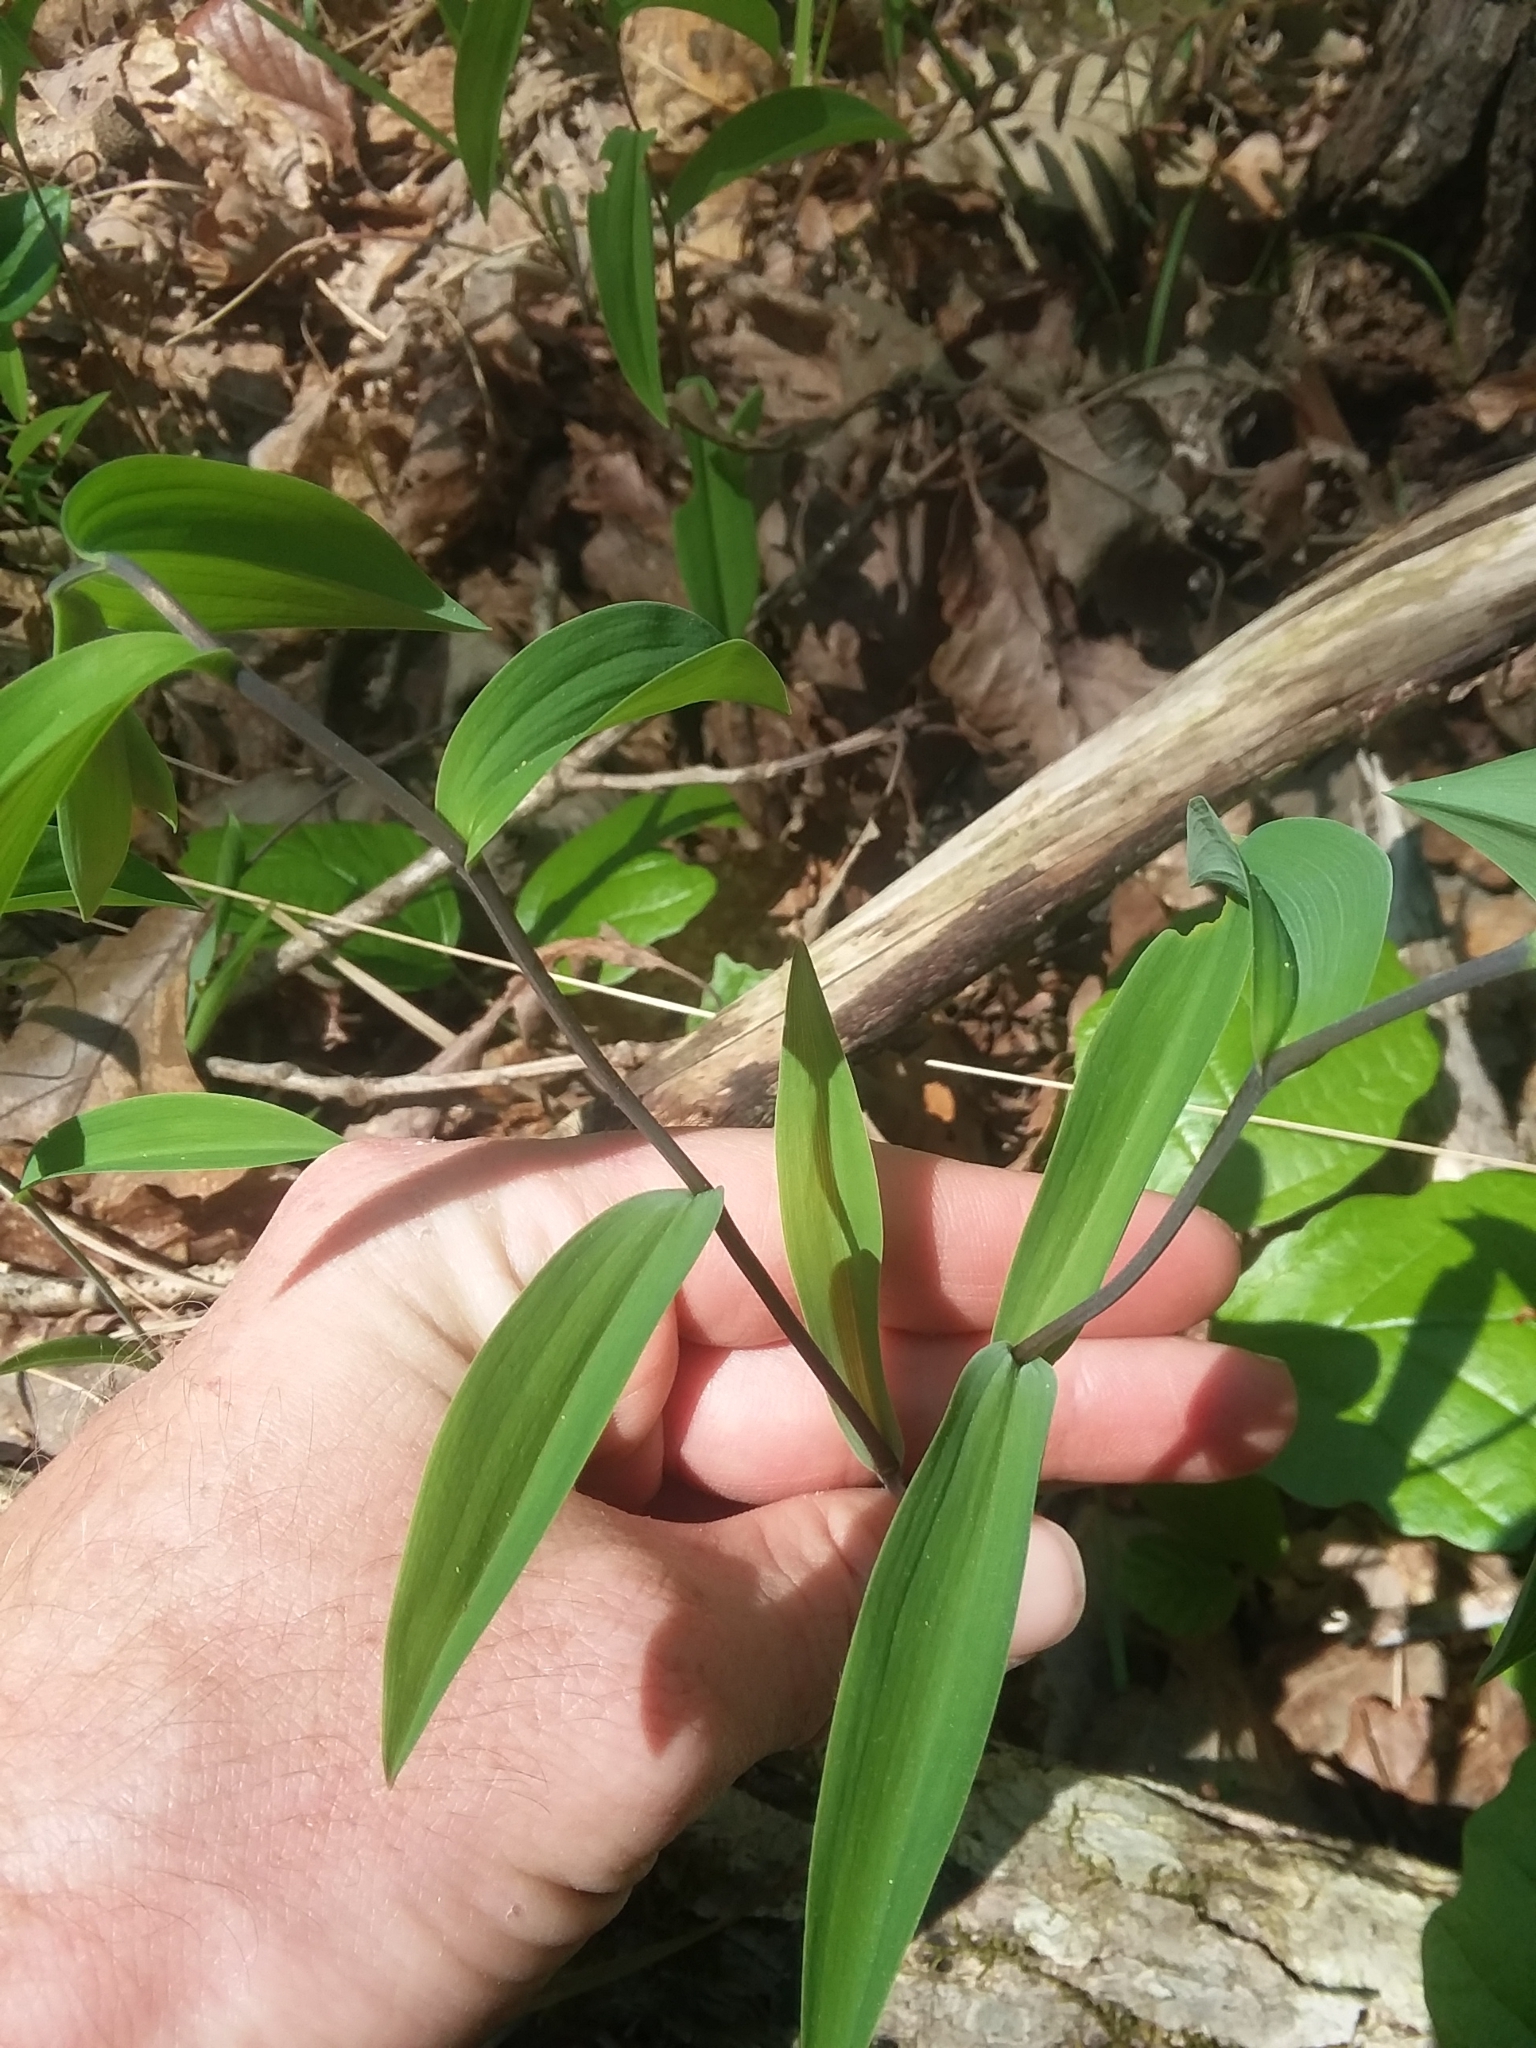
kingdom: Plantae
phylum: Tracheophyta
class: Liliopsida
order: Liliales
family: Colchicaceae
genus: Uvularia
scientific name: Uvularia sessilifolia
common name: Straw-lily
